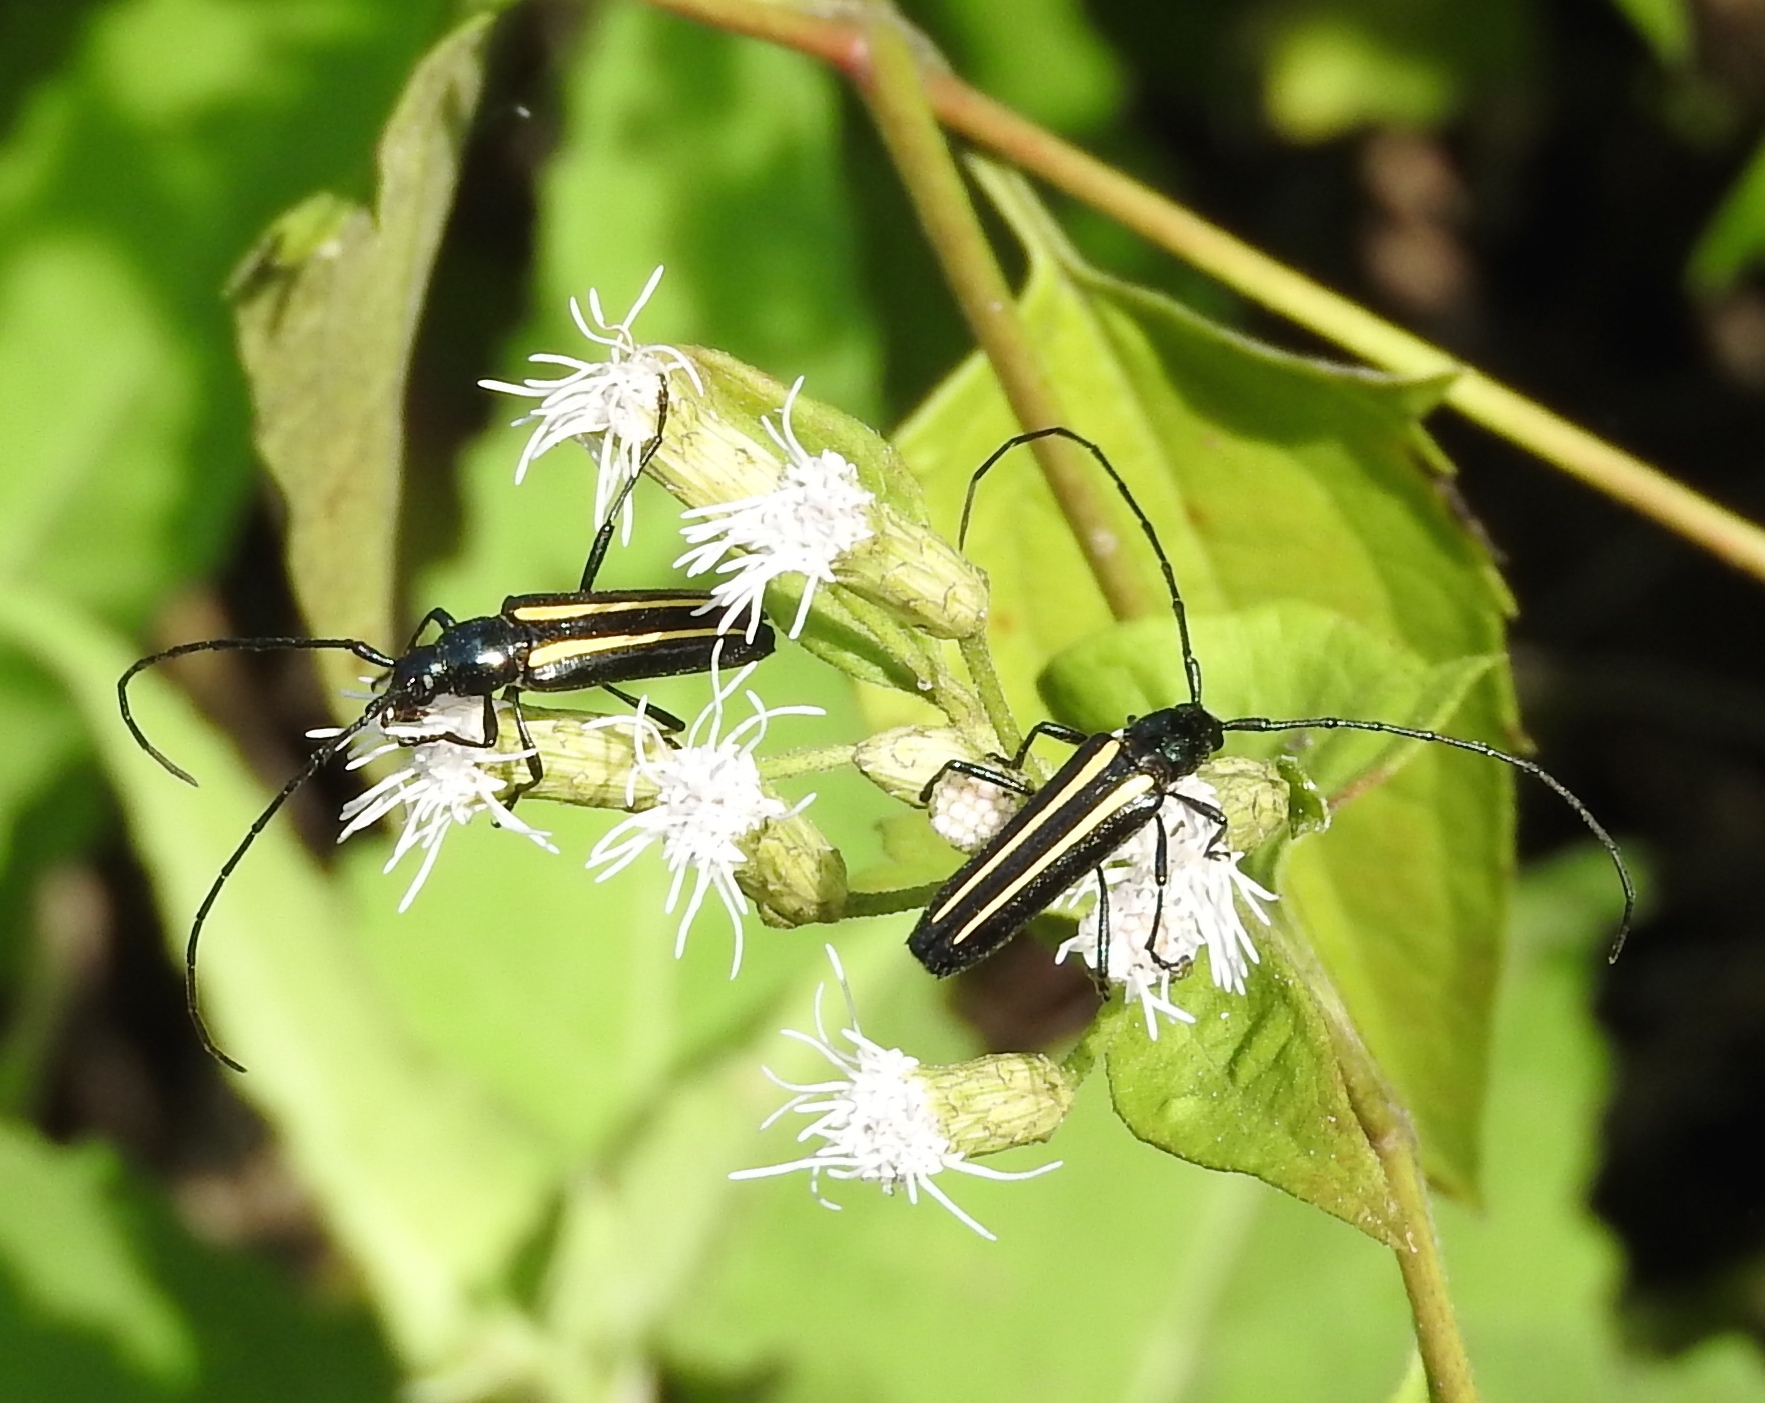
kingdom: Animalia
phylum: Arthropoda
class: Insecta
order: Coleoptera
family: Cerambycidae
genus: Lophalia
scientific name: Lophalia prolata
